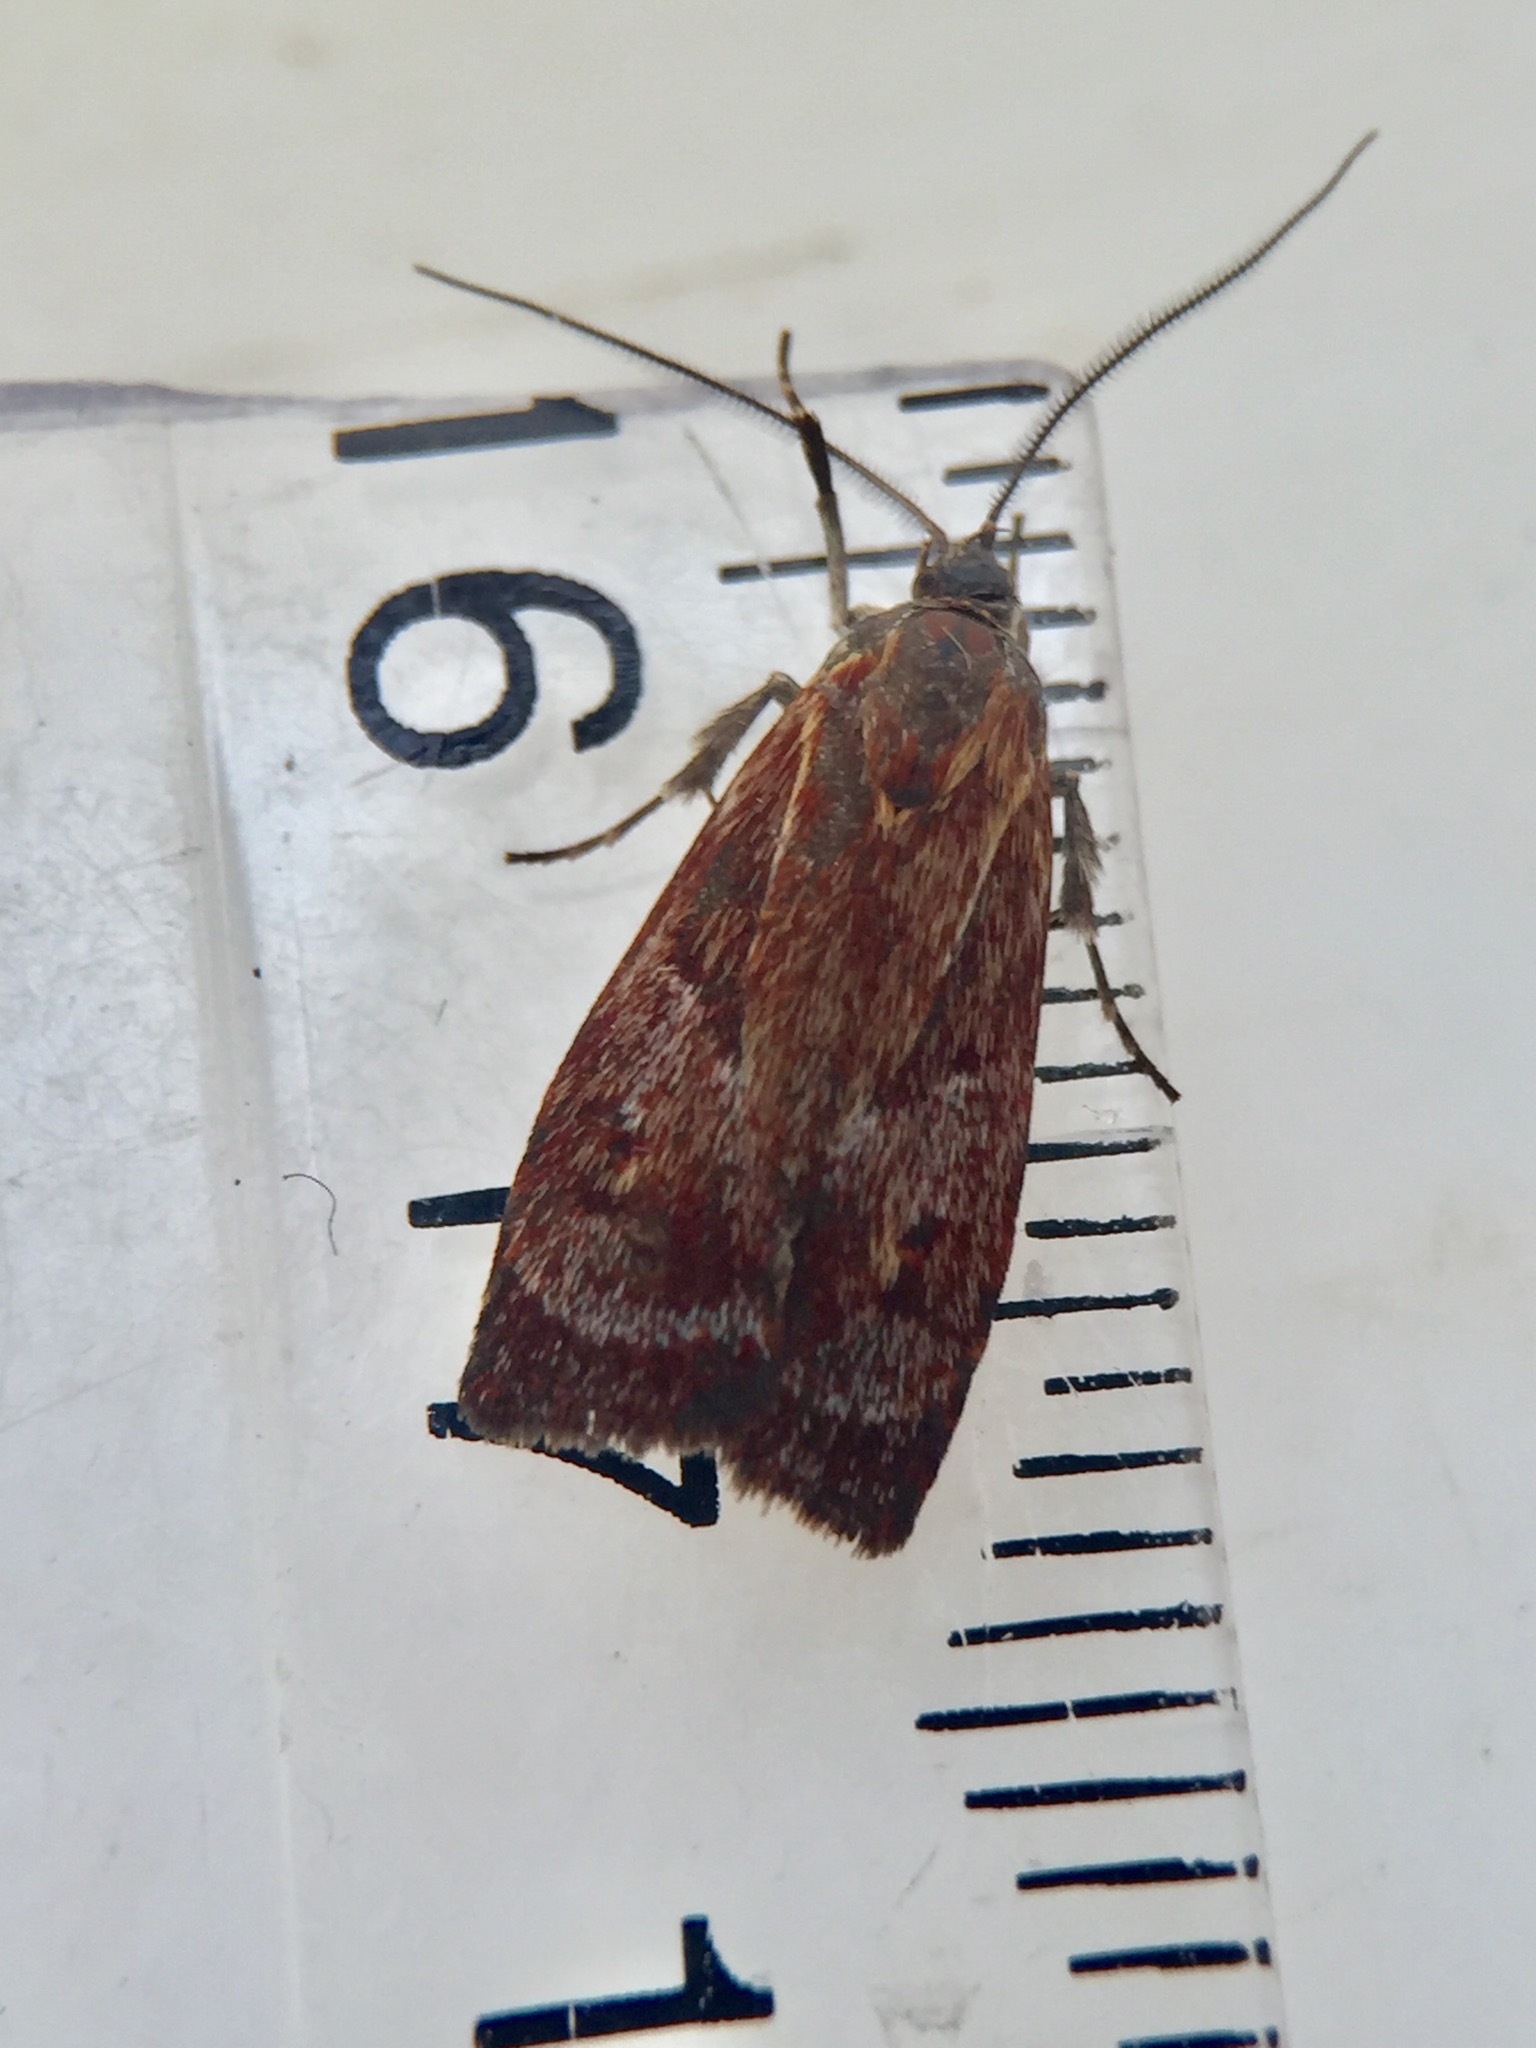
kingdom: Animalia
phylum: Arthropoda
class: Insecta
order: Lepidoptera
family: Oecophoridae
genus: Hierodoris
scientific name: Hierodoris
